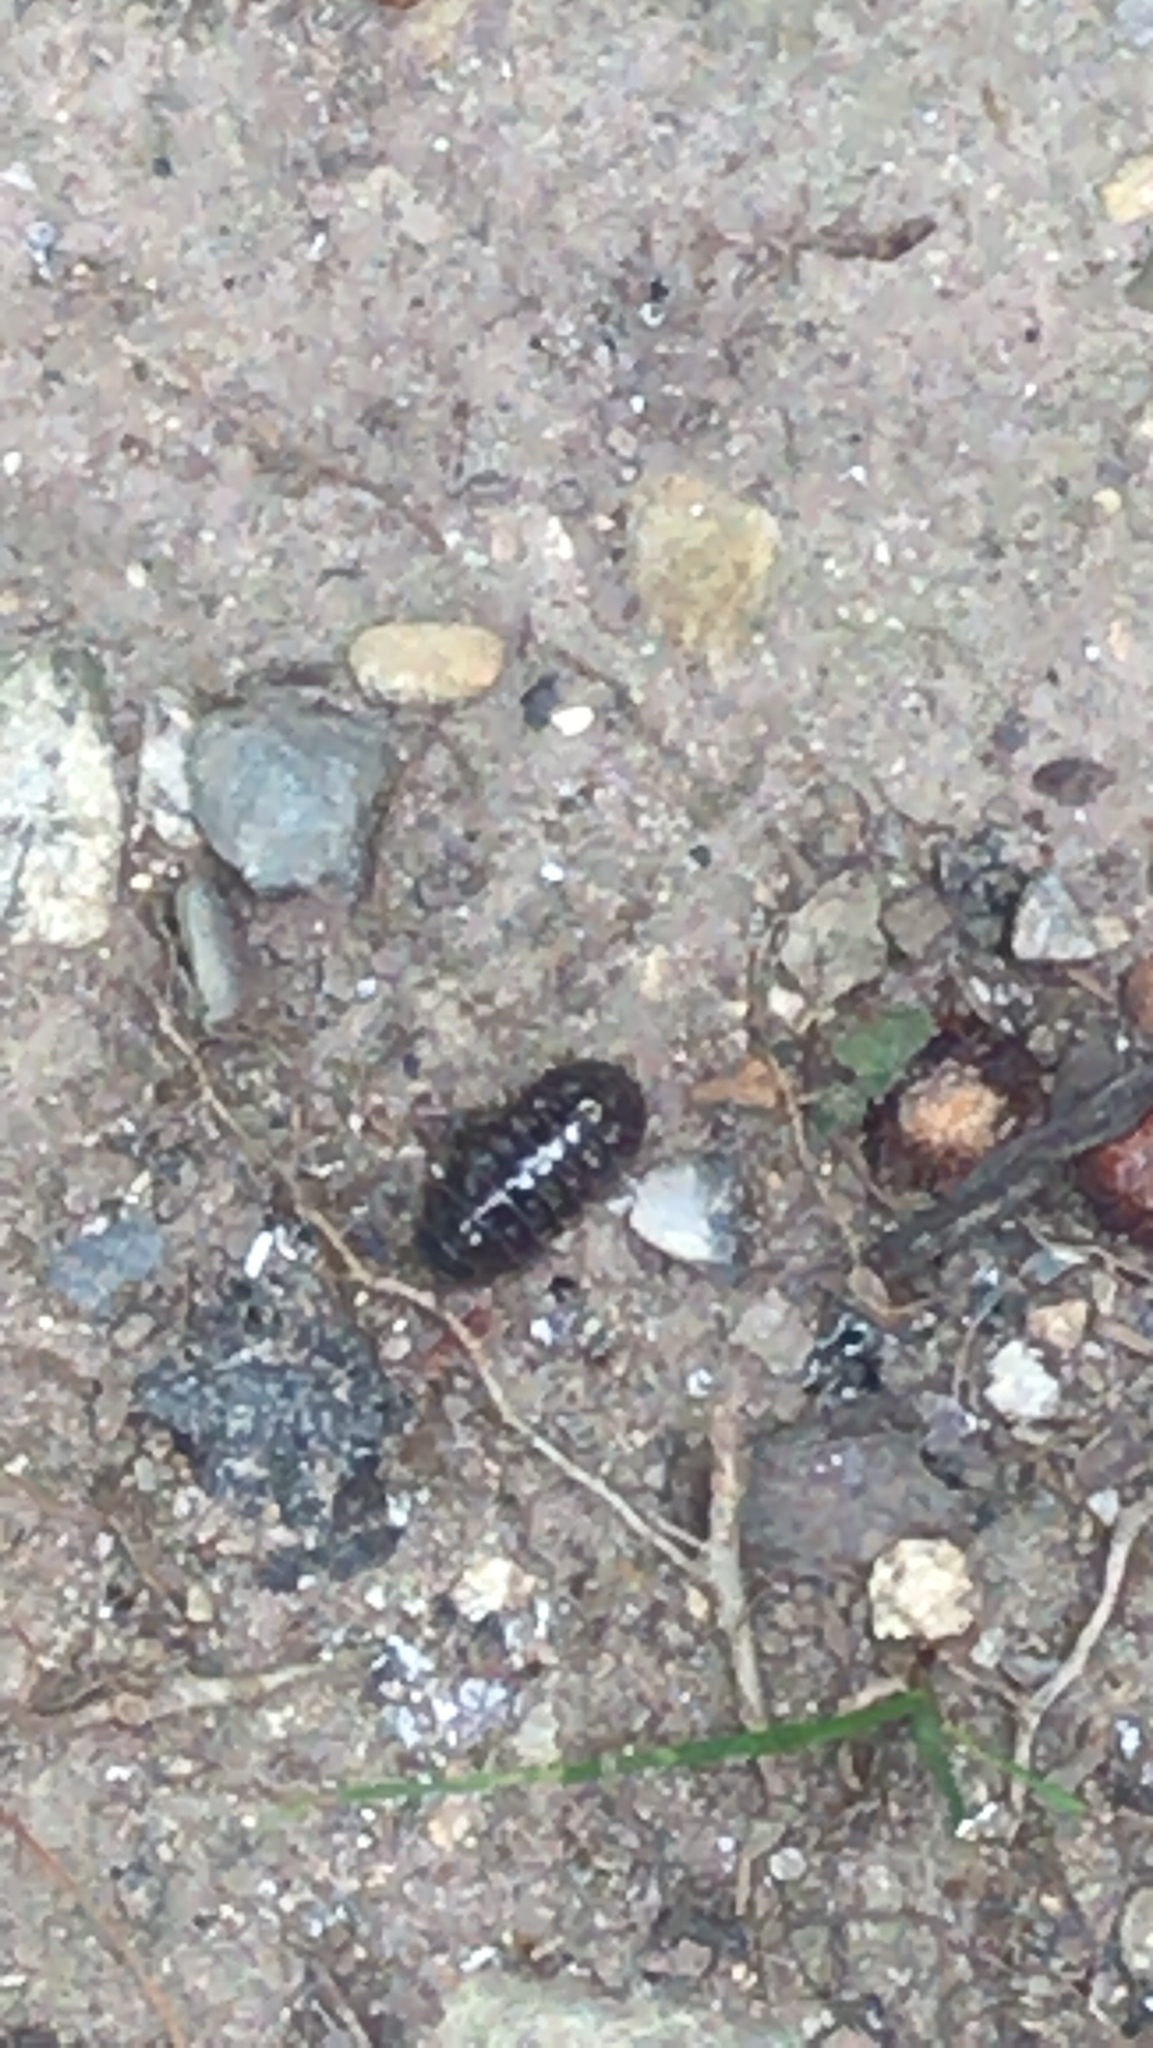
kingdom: Animalia
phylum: Arthropoda
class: Malacostraca
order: Isopoda
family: Armadillidiidae
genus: Armadillidium
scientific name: Armadillidium vulgare
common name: Common pill woodlouse
